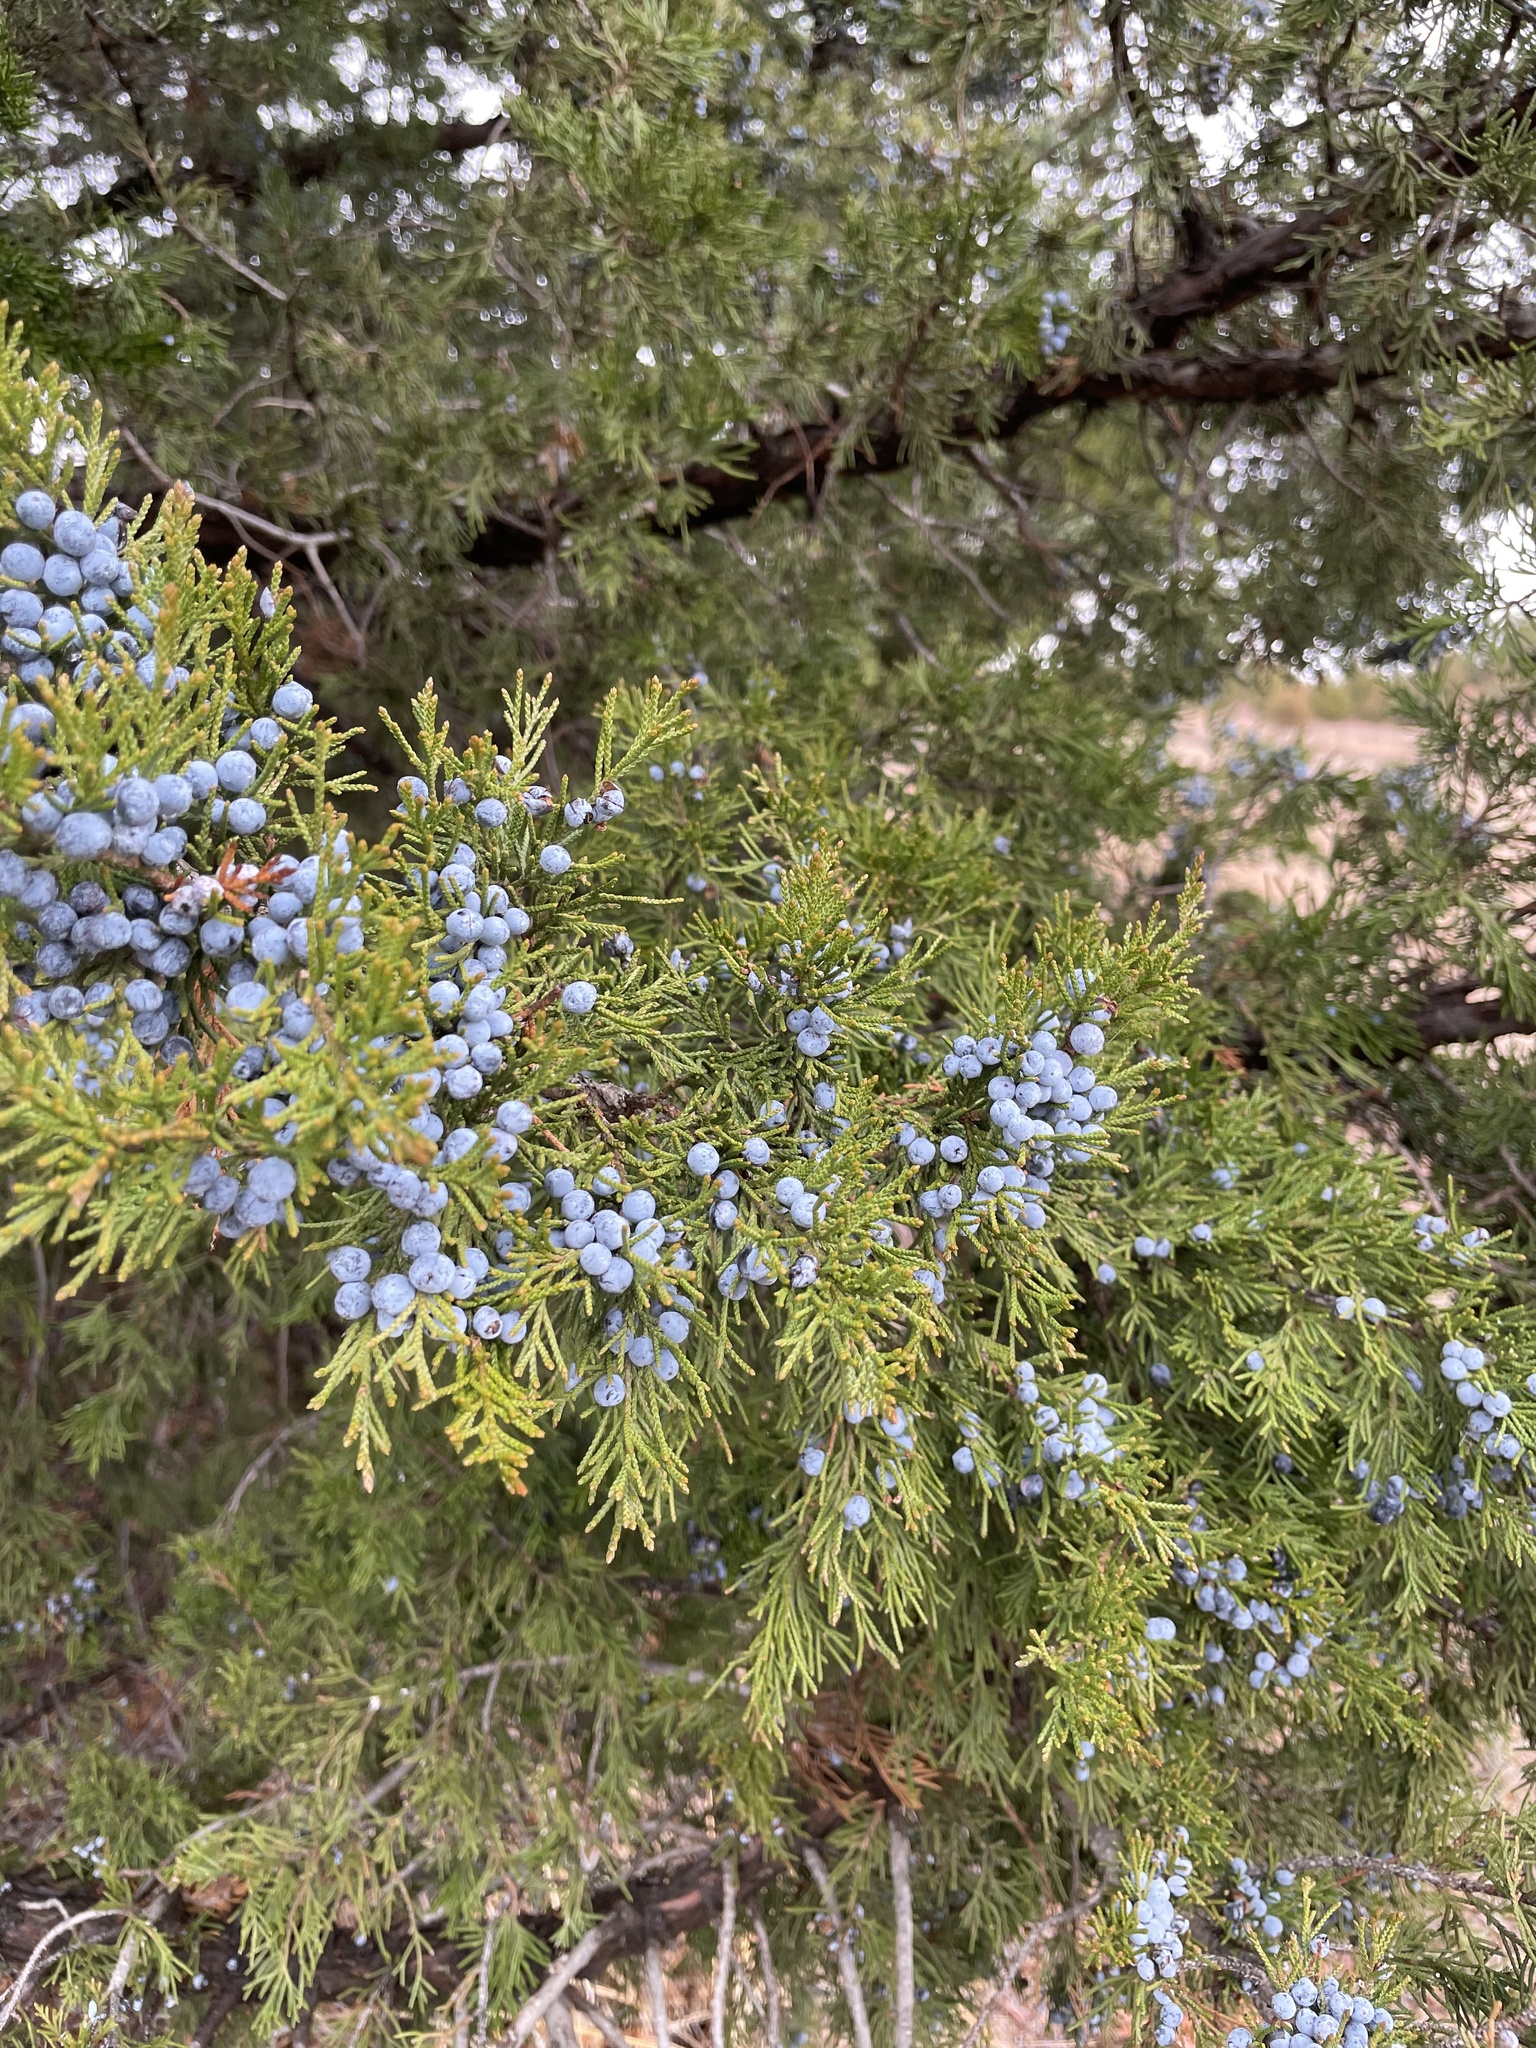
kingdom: Plantae
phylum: Tracheophyta
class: Pinopsida
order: Pinales
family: Cupressaceae
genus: Juniperus
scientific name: Juniperus virginiana
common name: Red juniper
